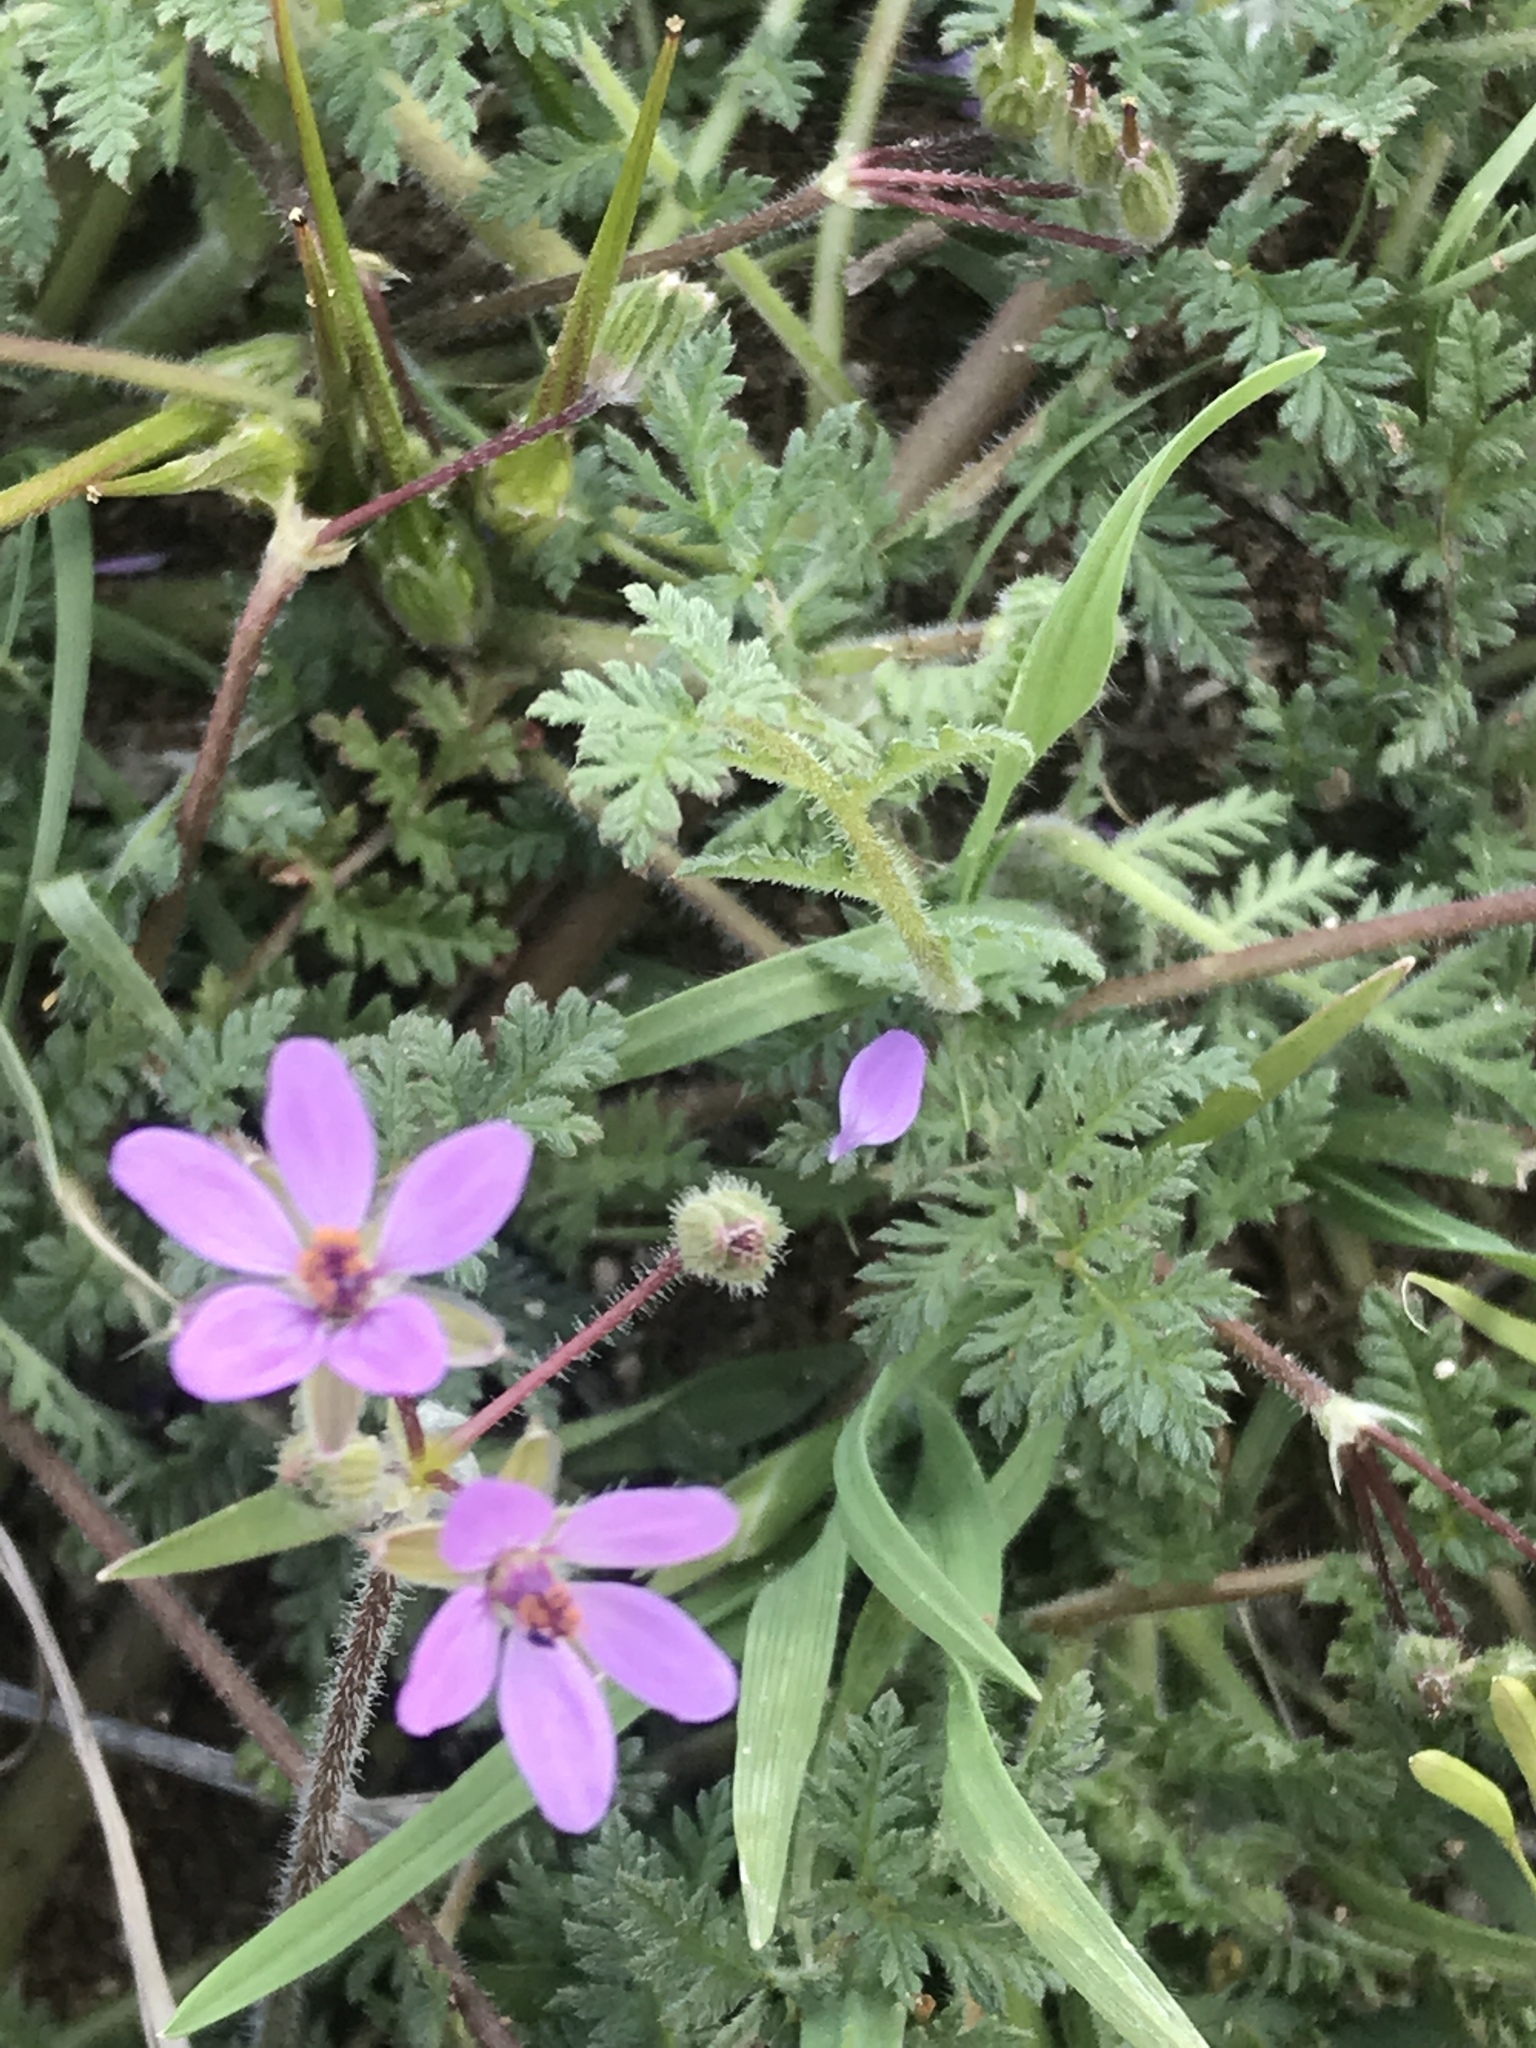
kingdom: Plantae
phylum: Tracheophyta
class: Magnoliopsida
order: Geraniales
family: Geraniaceae
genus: Erodium
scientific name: Erodium cicutarium
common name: Common stork's-bill
